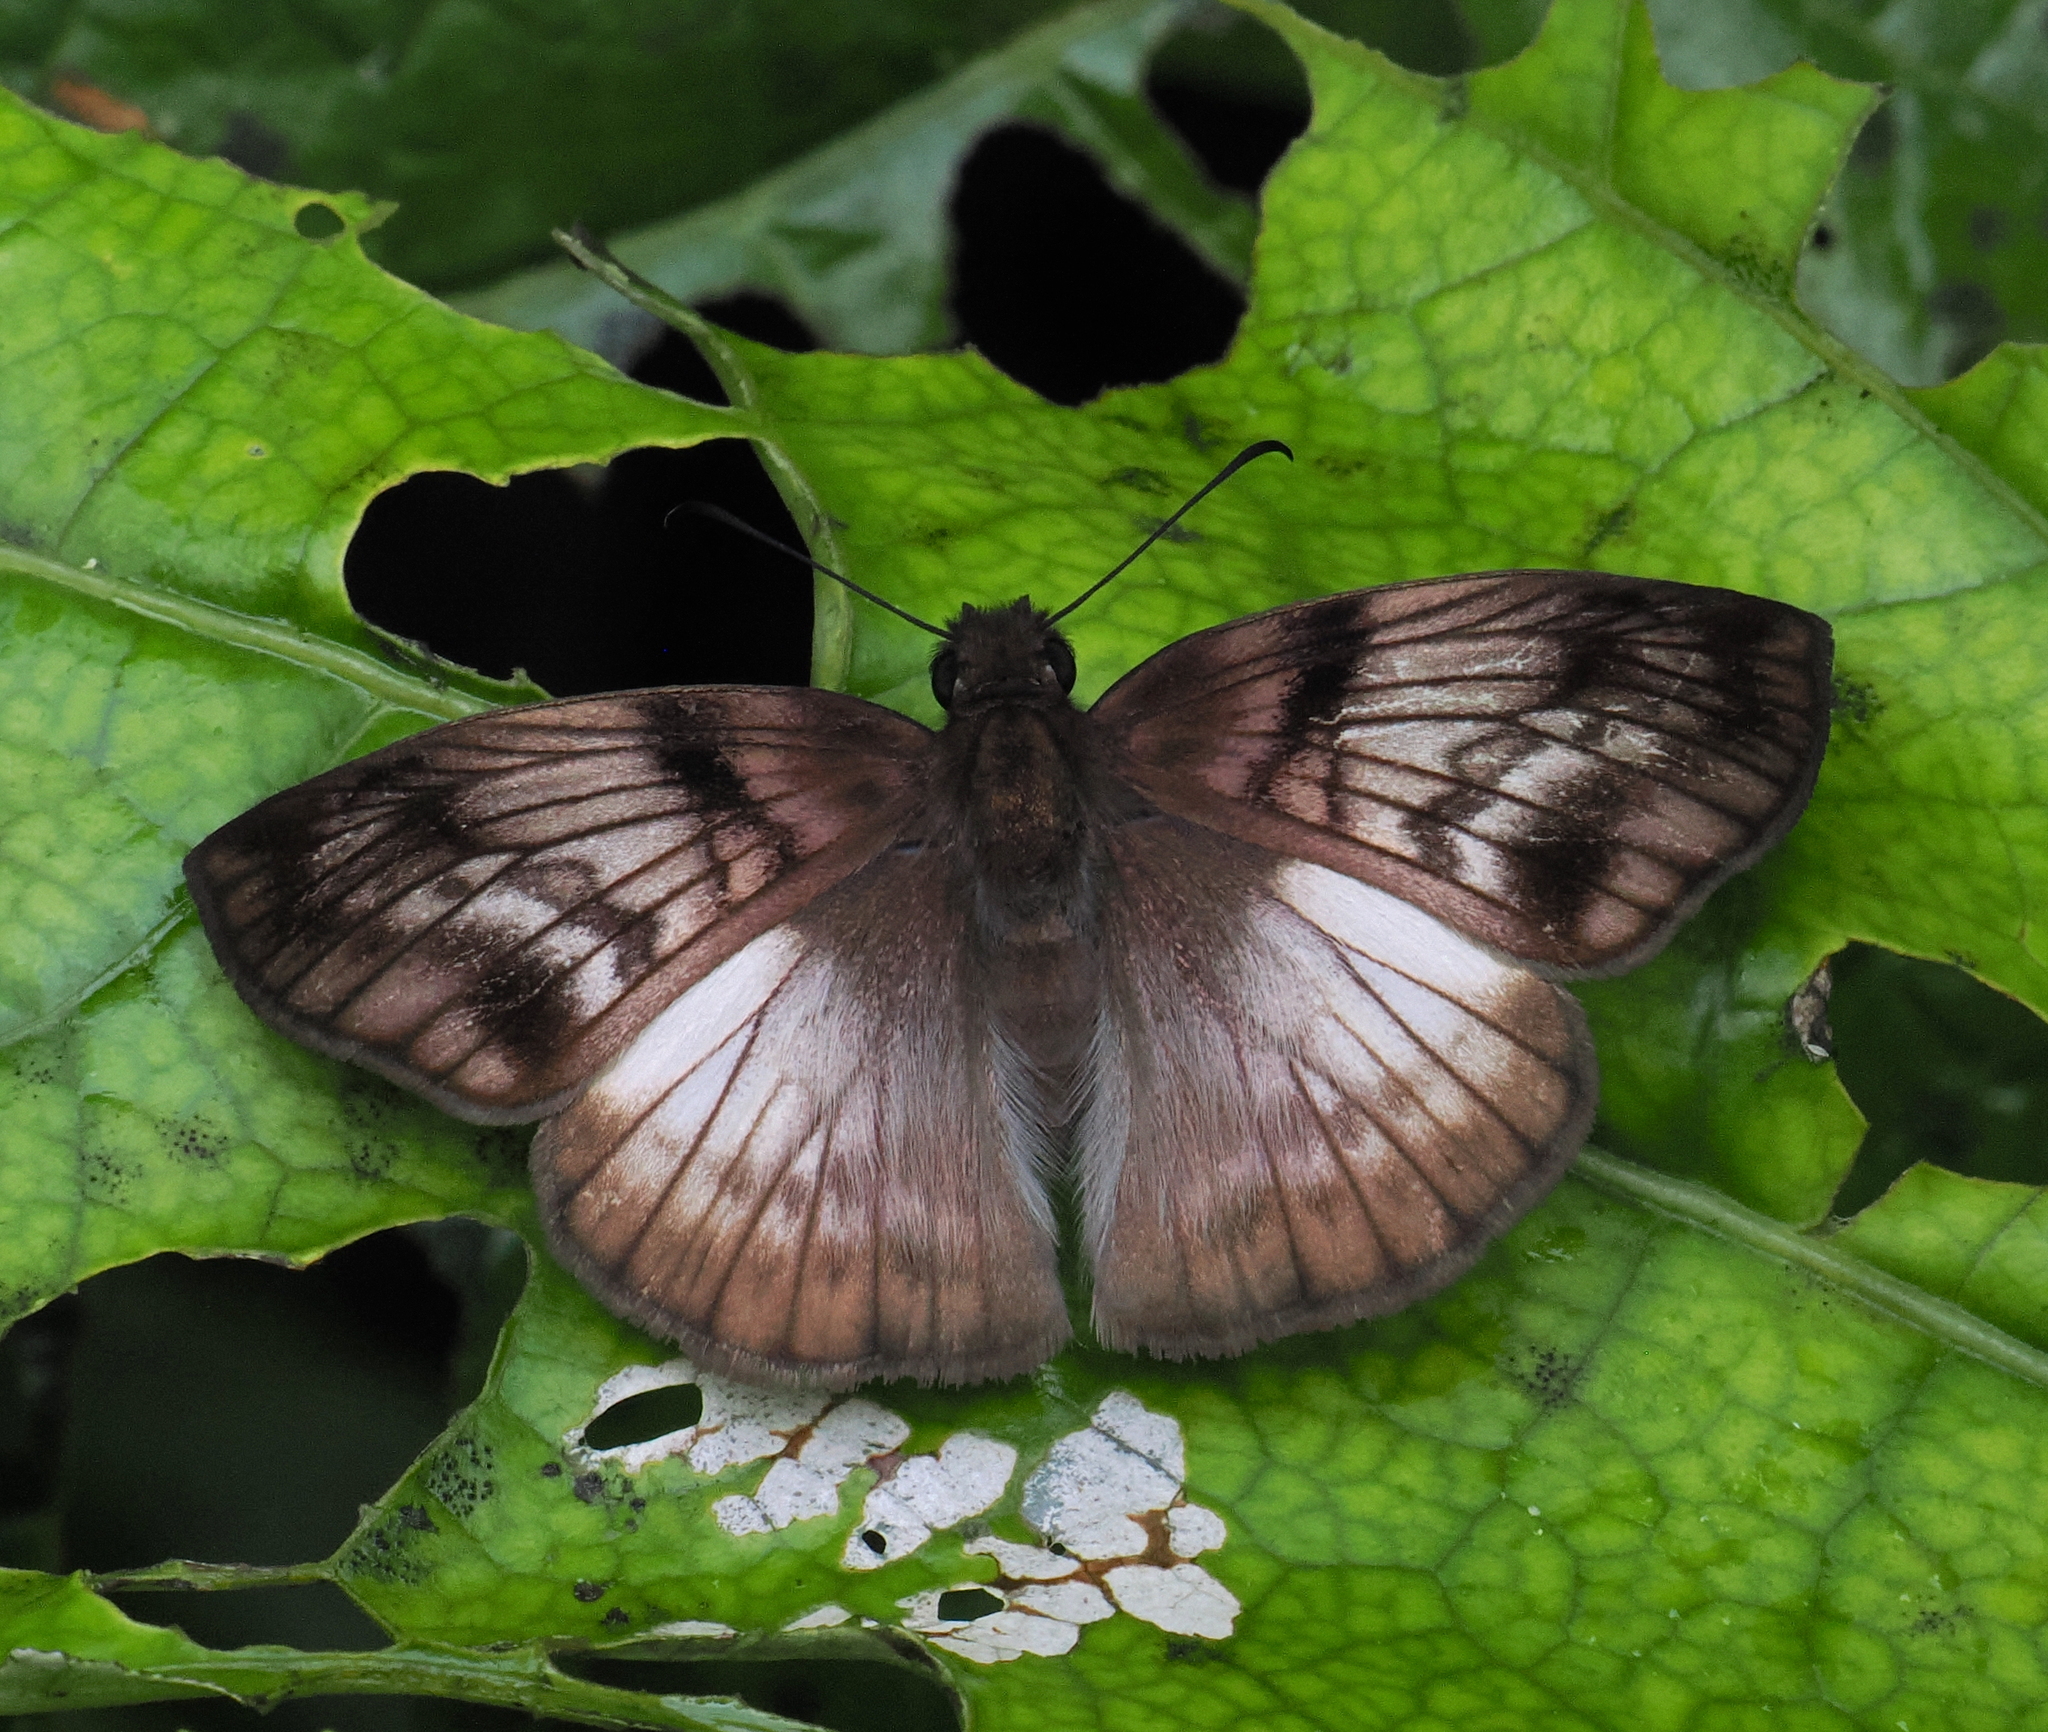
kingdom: Animalia
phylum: Arthropoda
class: Insecta
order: Lepidoptera
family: Hesperiidae
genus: Mylon
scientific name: Mylon maimon
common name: Common mylon
